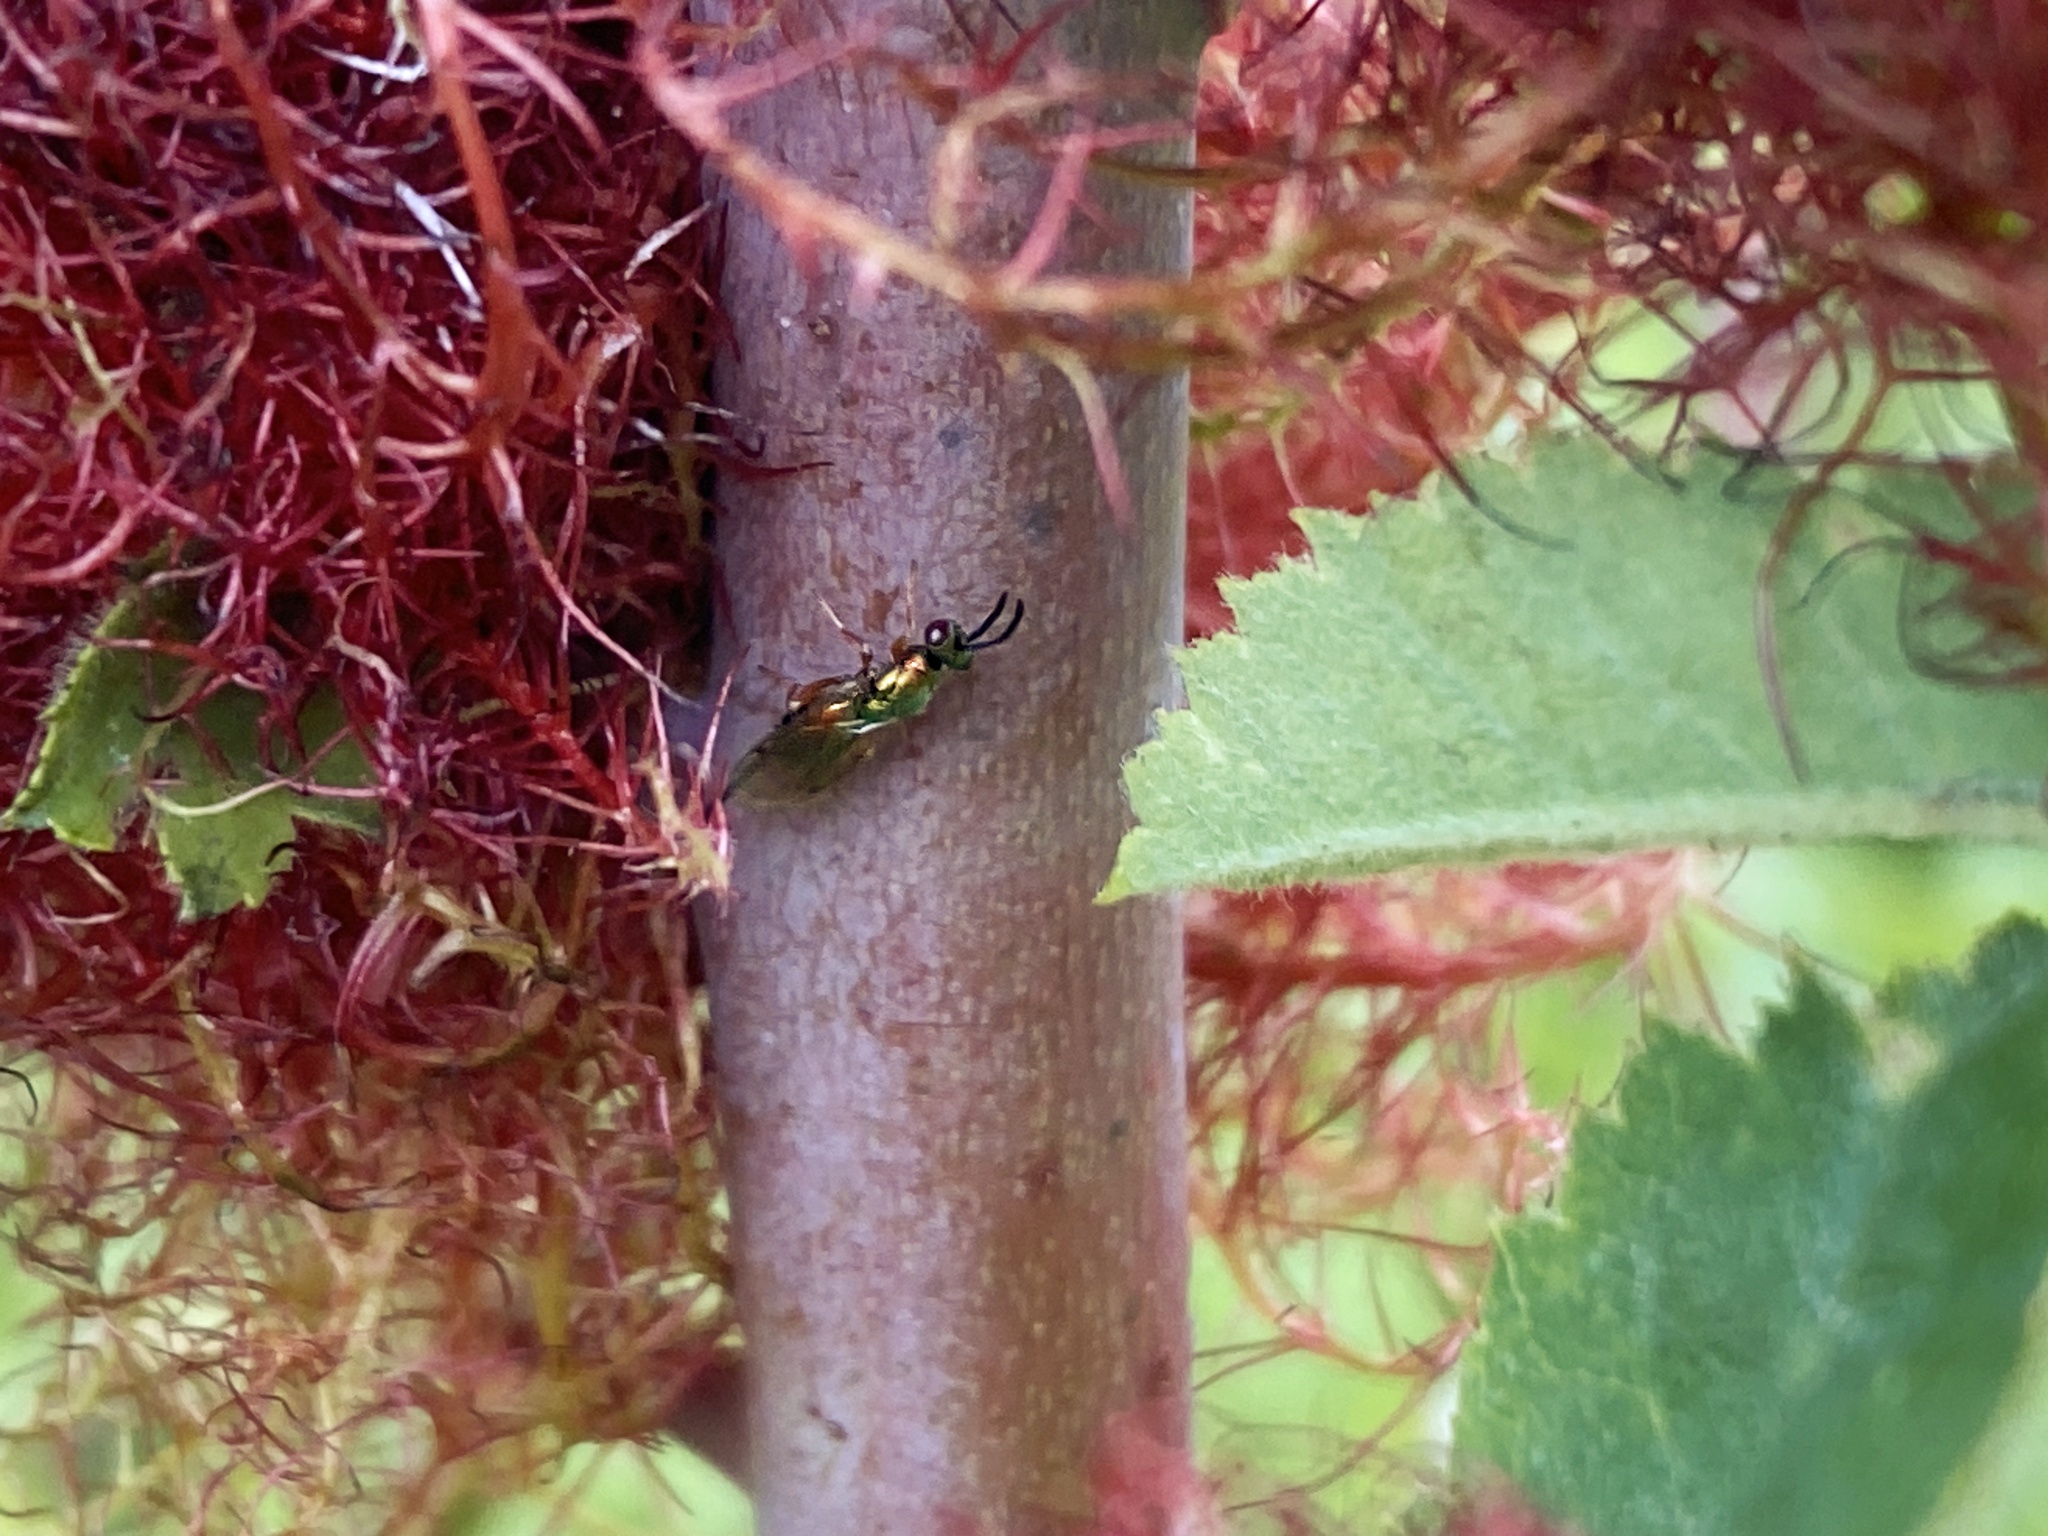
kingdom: Animalia
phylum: Arthropoda
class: Insecta
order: Hymenoptera
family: Torymidae
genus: Torymus
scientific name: Torymus bedeguaris
